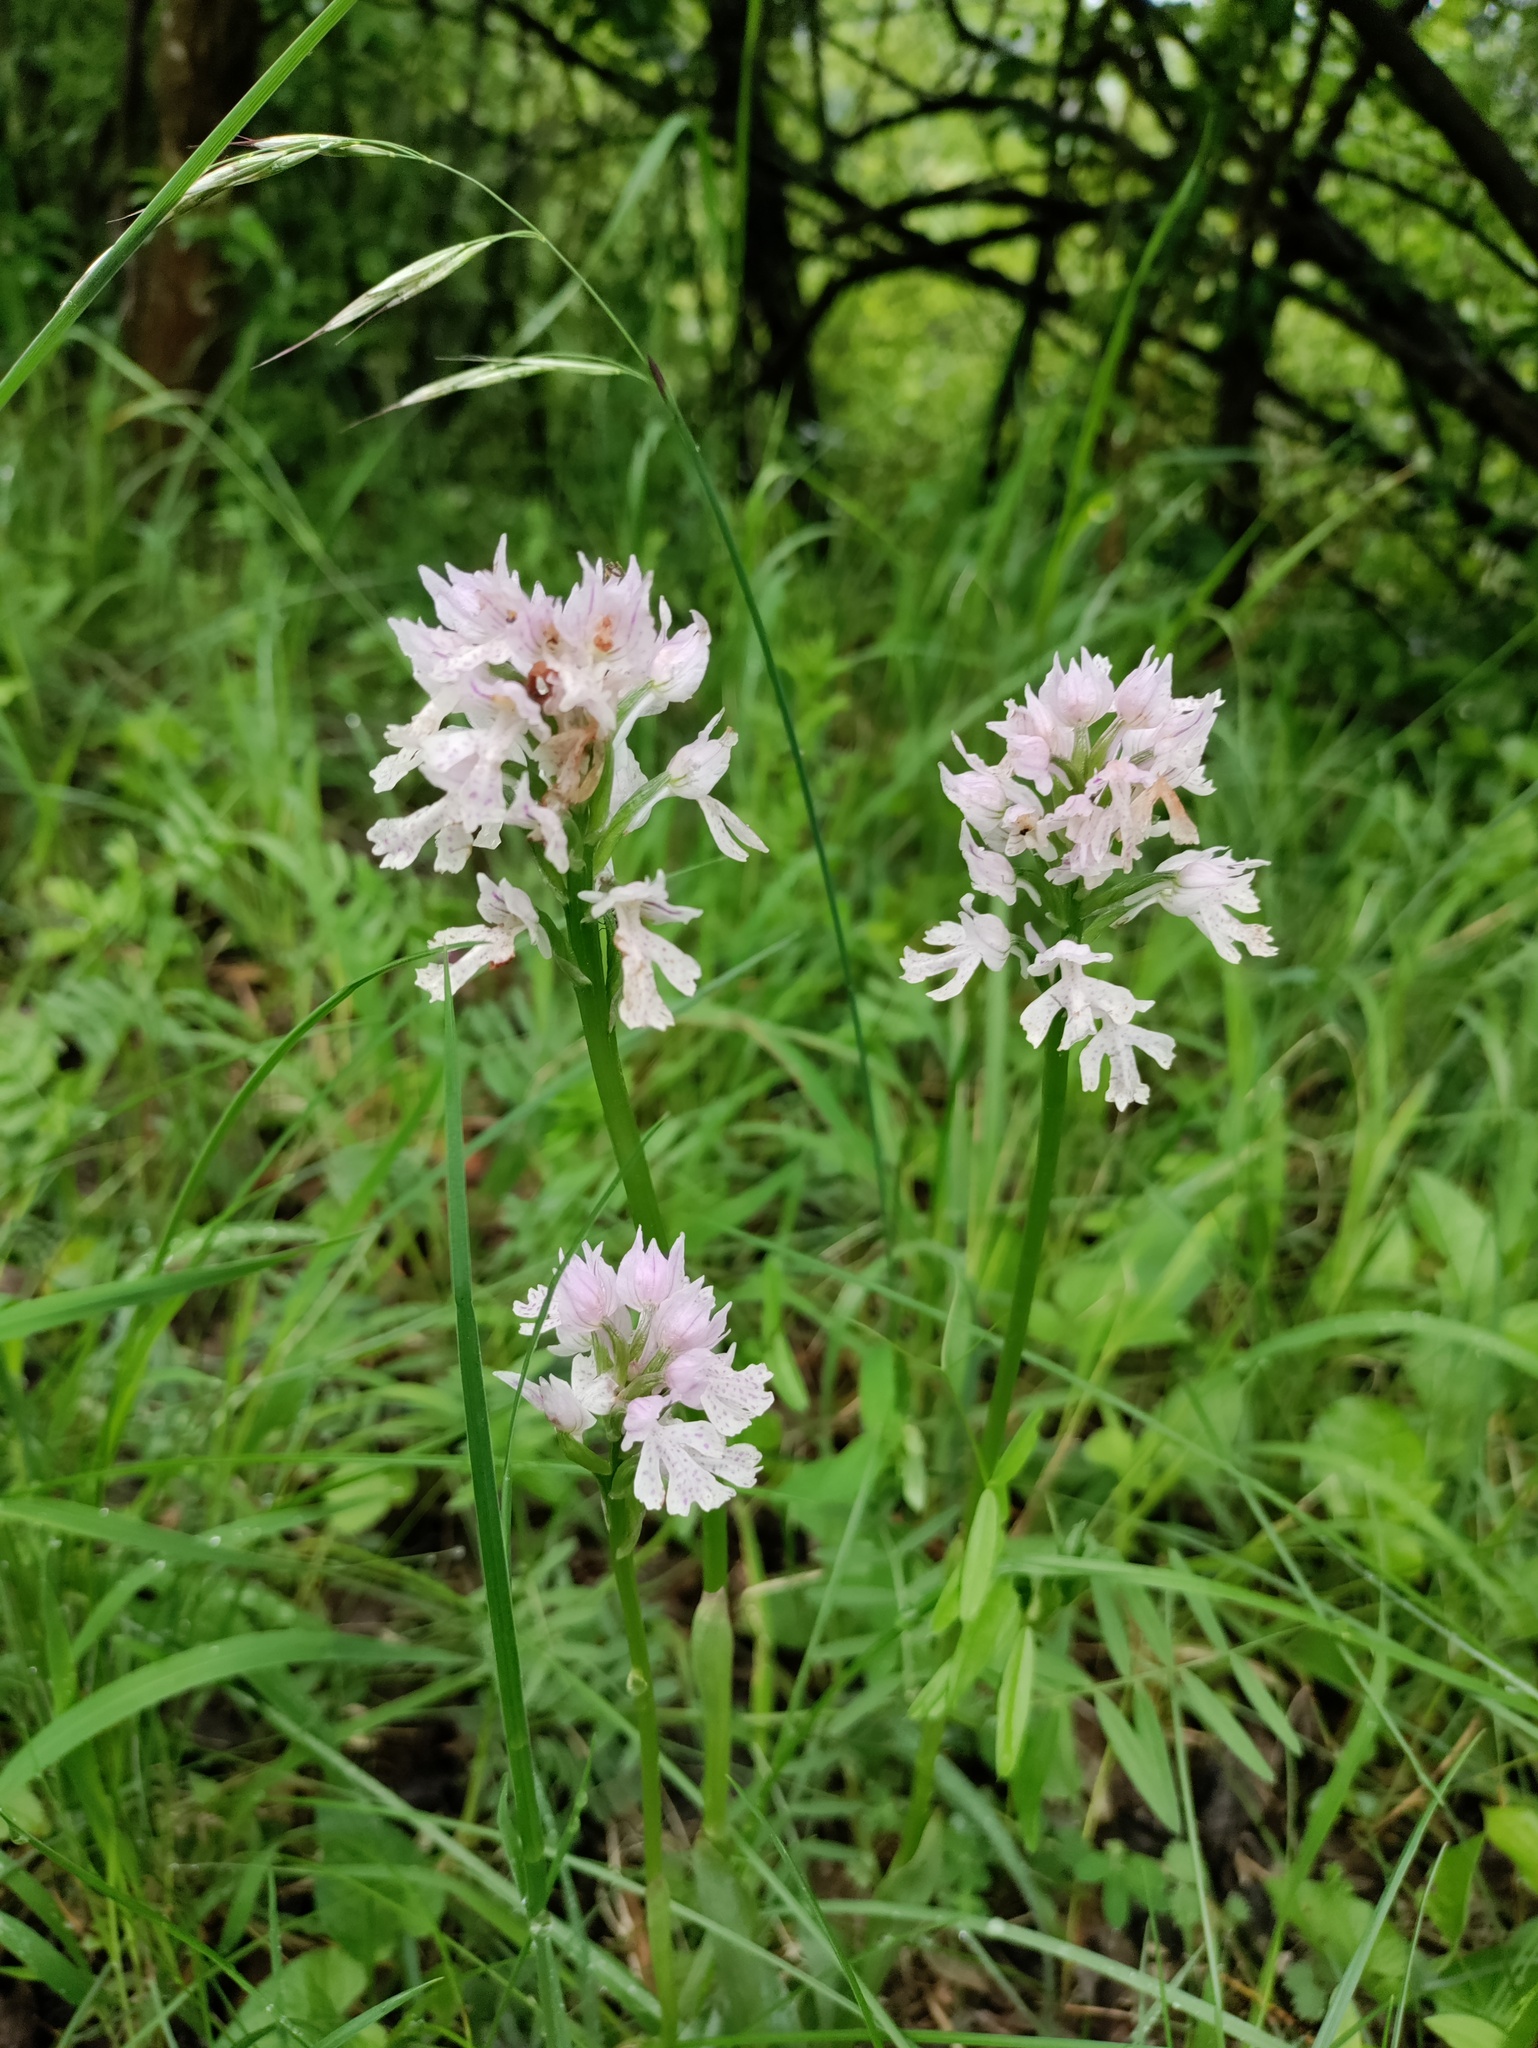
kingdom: Plantae
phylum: Tracheophyta
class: Liliopsida
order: Asparagales
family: Orchidaceae
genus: Neotinea
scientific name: Neotinea tridentata
